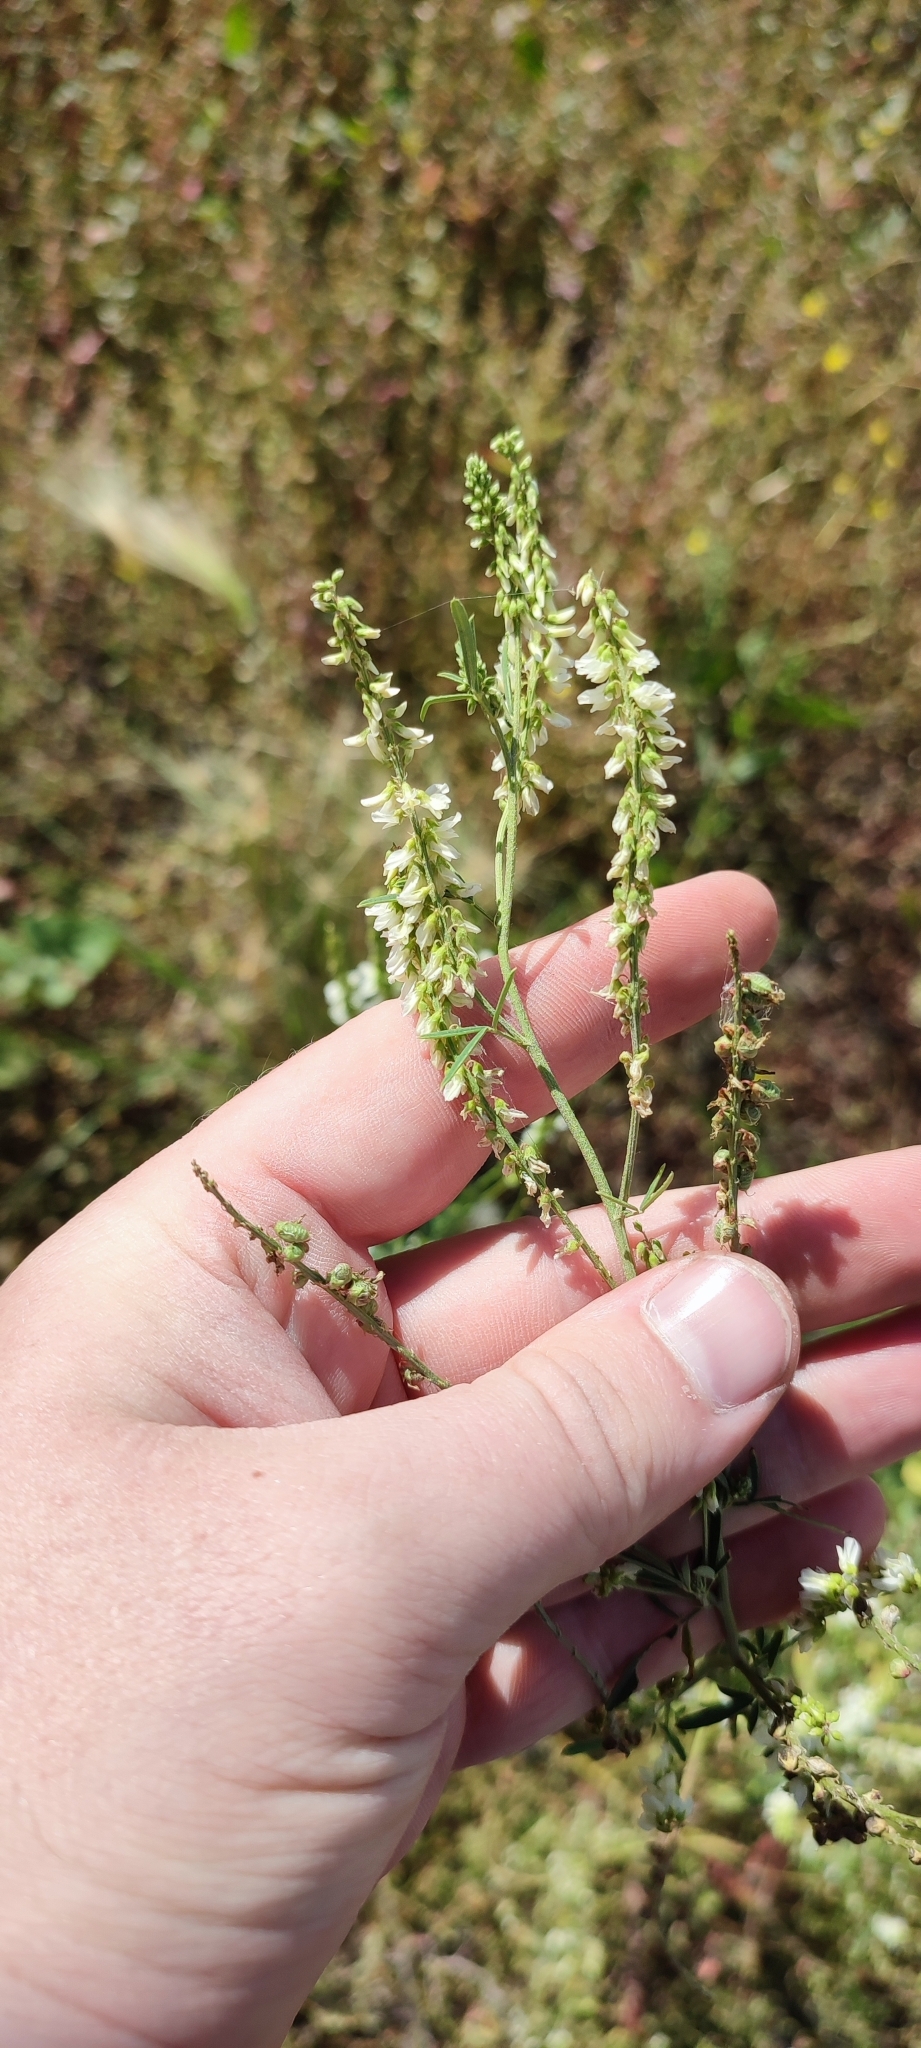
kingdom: Plantae
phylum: Tracheophyta
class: Magnoliopsida
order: Fabales
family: Fabaceae
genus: Melilotus
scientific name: Melilotus albus
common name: White melilot
